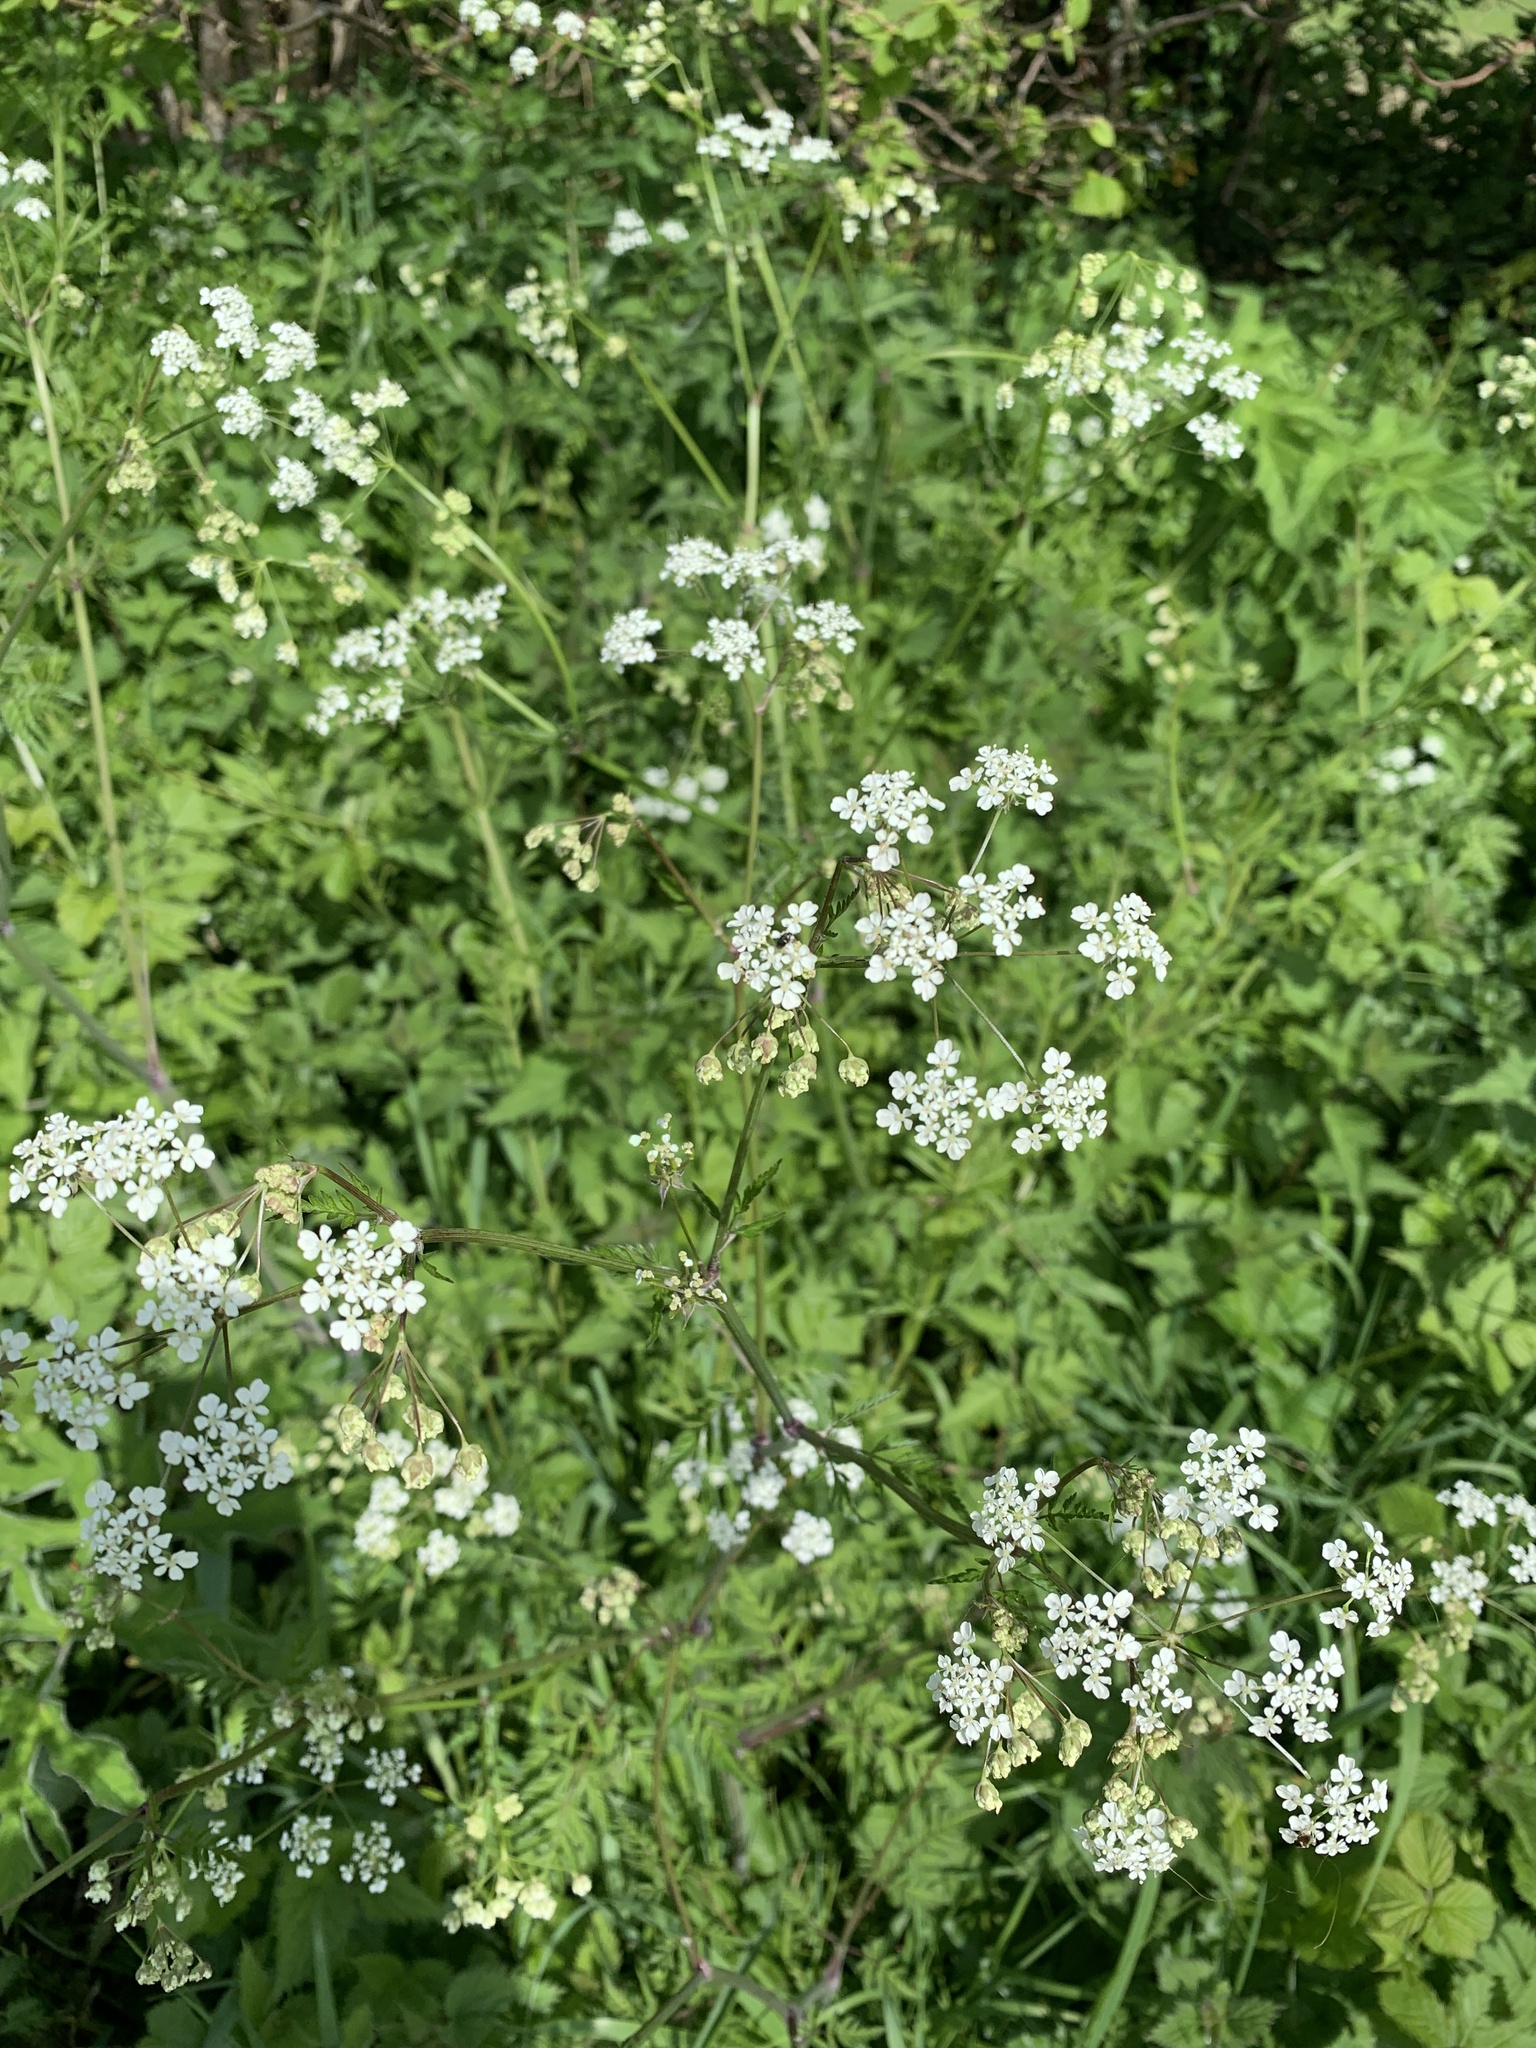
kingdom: Plantae
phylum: Tracheophyta
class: Magnoliopsida
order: Apiales
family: Apiaceae
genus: Anthriscus
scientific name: Anthriscus sylvestris
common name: Cow parsley
